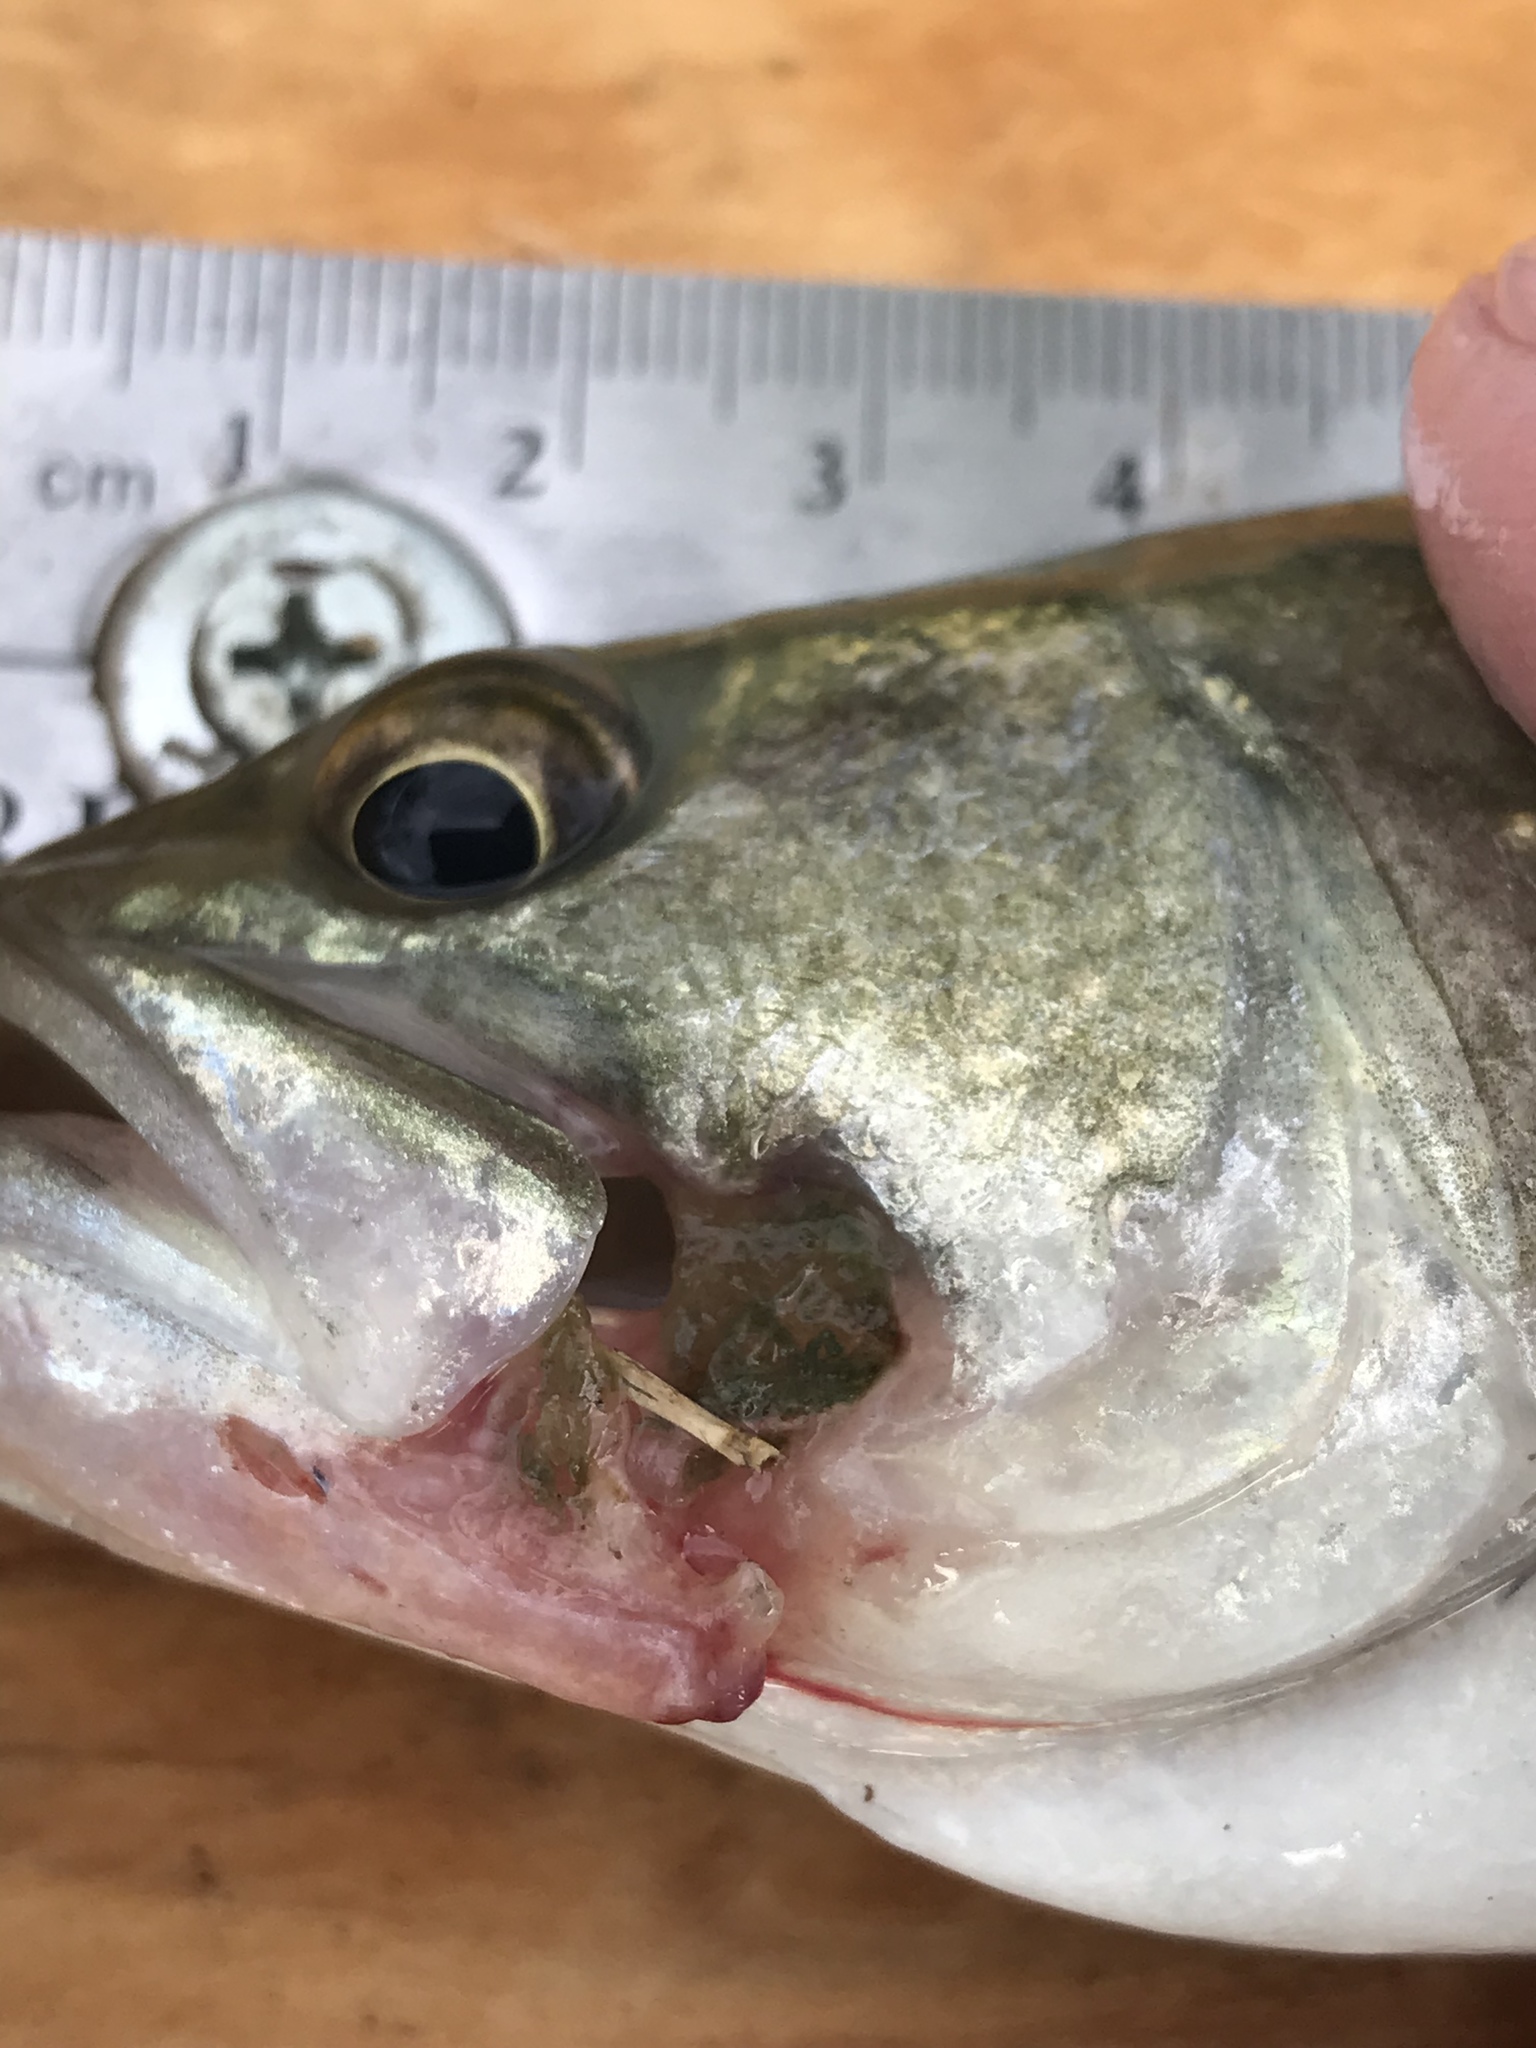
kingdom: Animalia
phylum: Chordata
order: Perciformes
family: Centrarchidae
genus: Micropterus
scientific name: Micropterus
